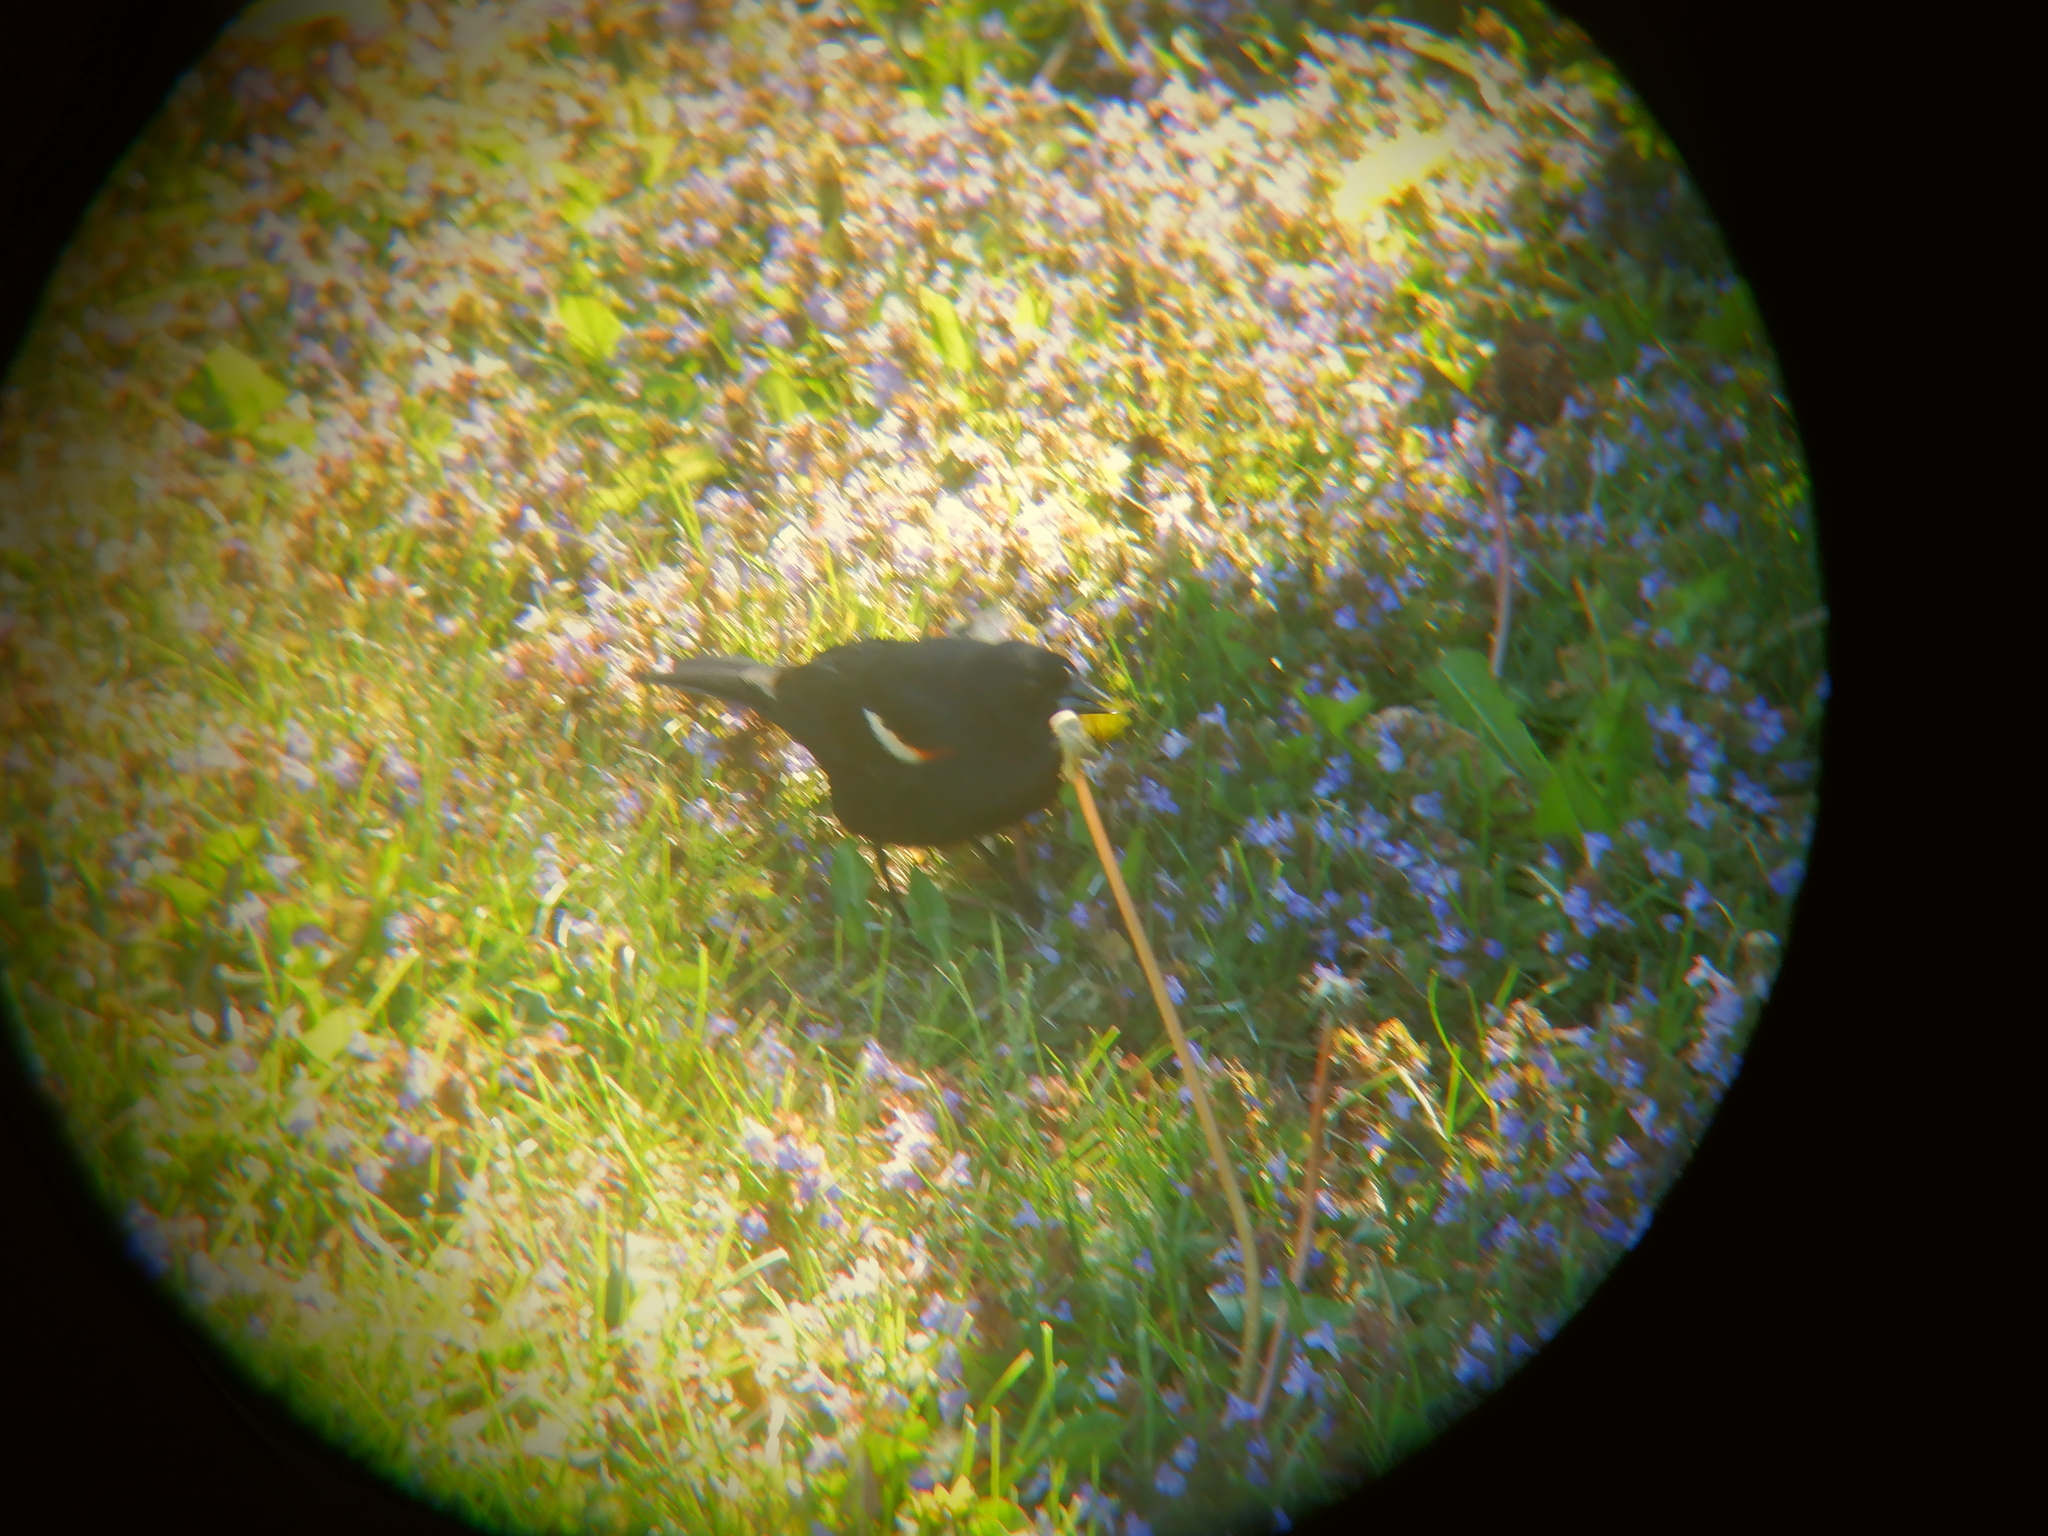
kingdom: Animalia
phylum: Chordata
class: Aves
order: Passeriformes
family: Icteridae
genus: Agelaius
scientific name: Agelaius phoeniceus
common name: Red-winged blackbird
